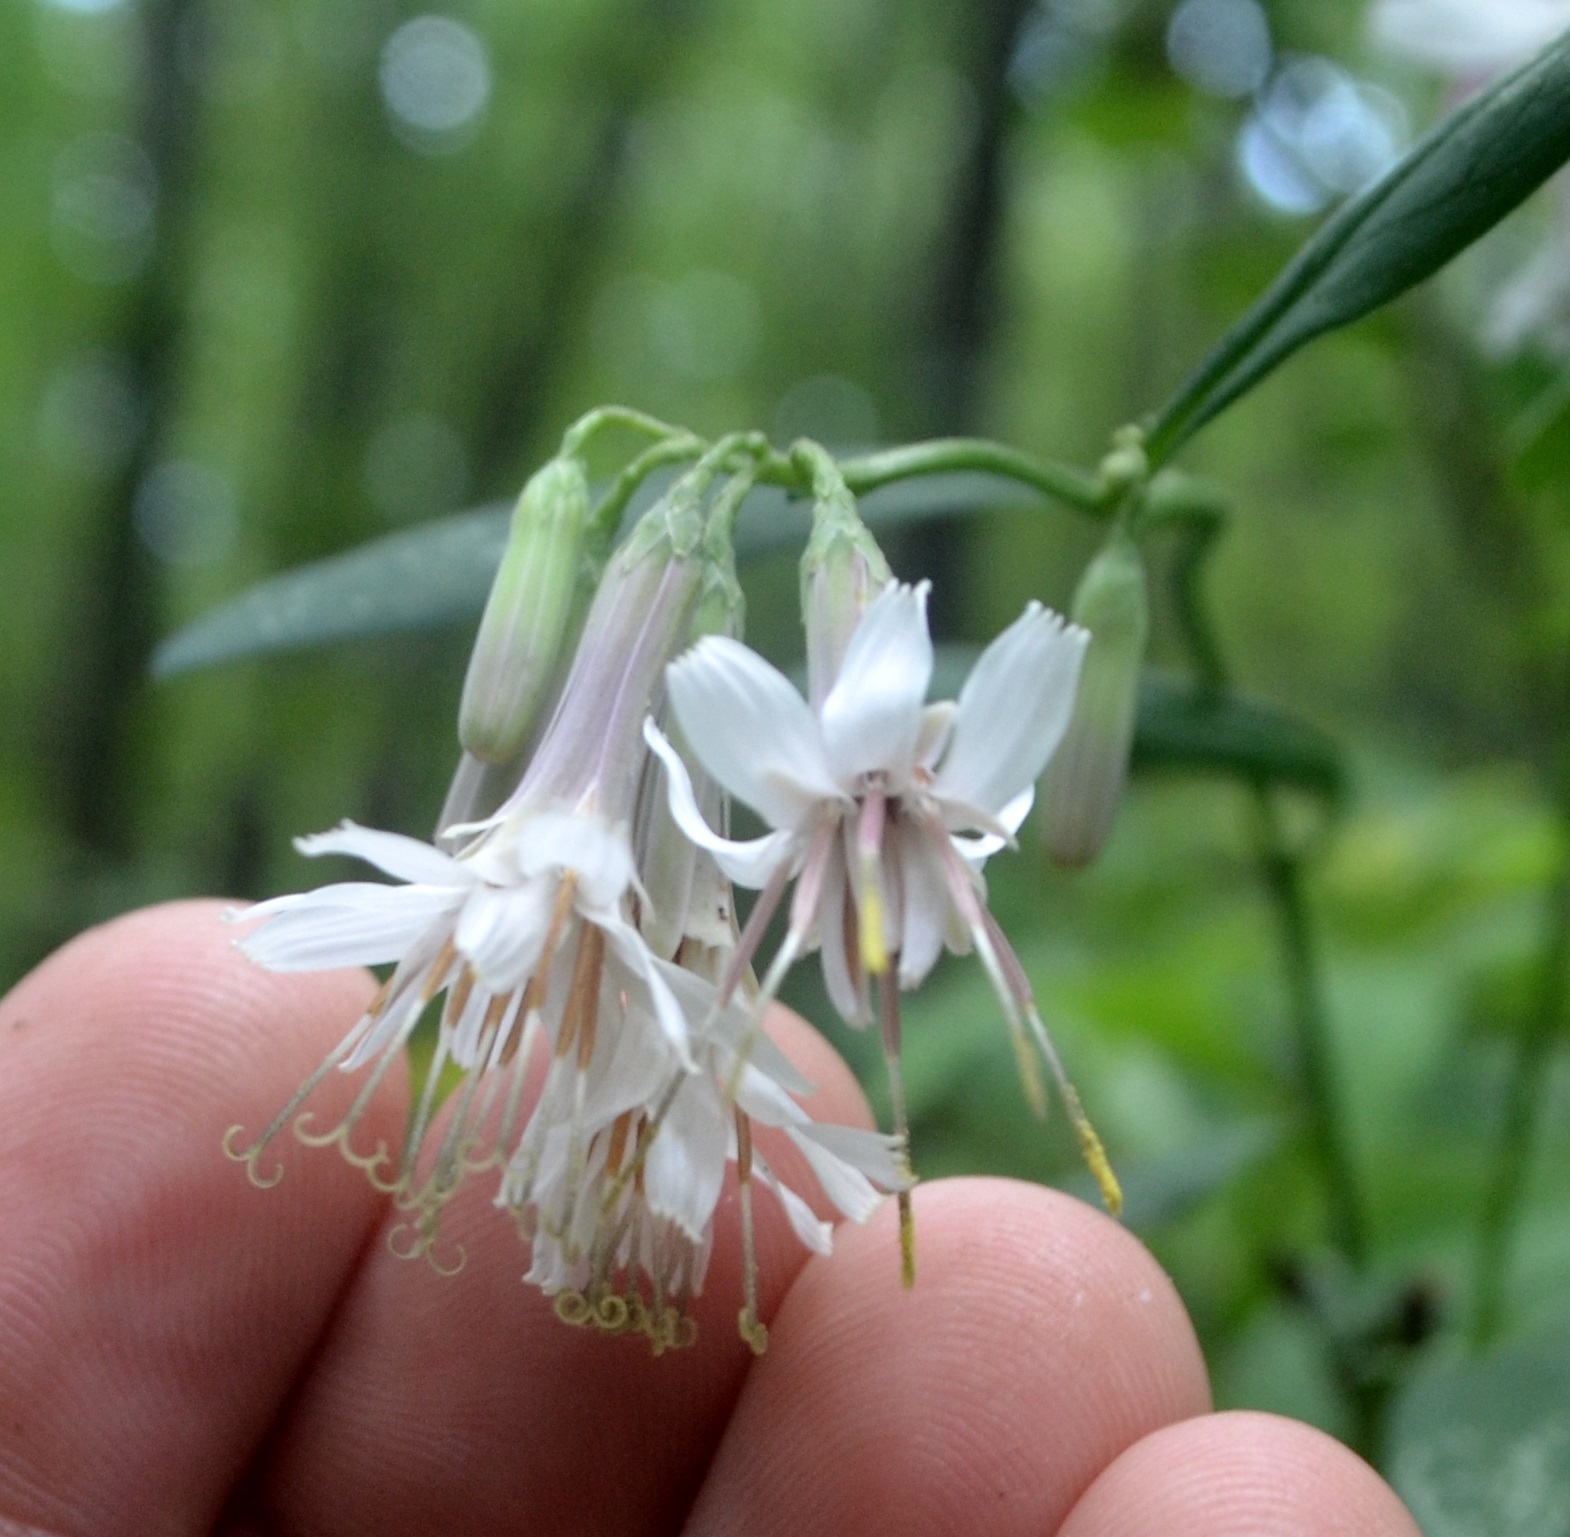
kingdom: Plantae
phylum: Tracheophyta
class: Magnoliopsida
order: Asterales
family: Asteraceae
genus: Nabalus
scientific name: Nabalus albus
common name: White rattlesnakeroot
